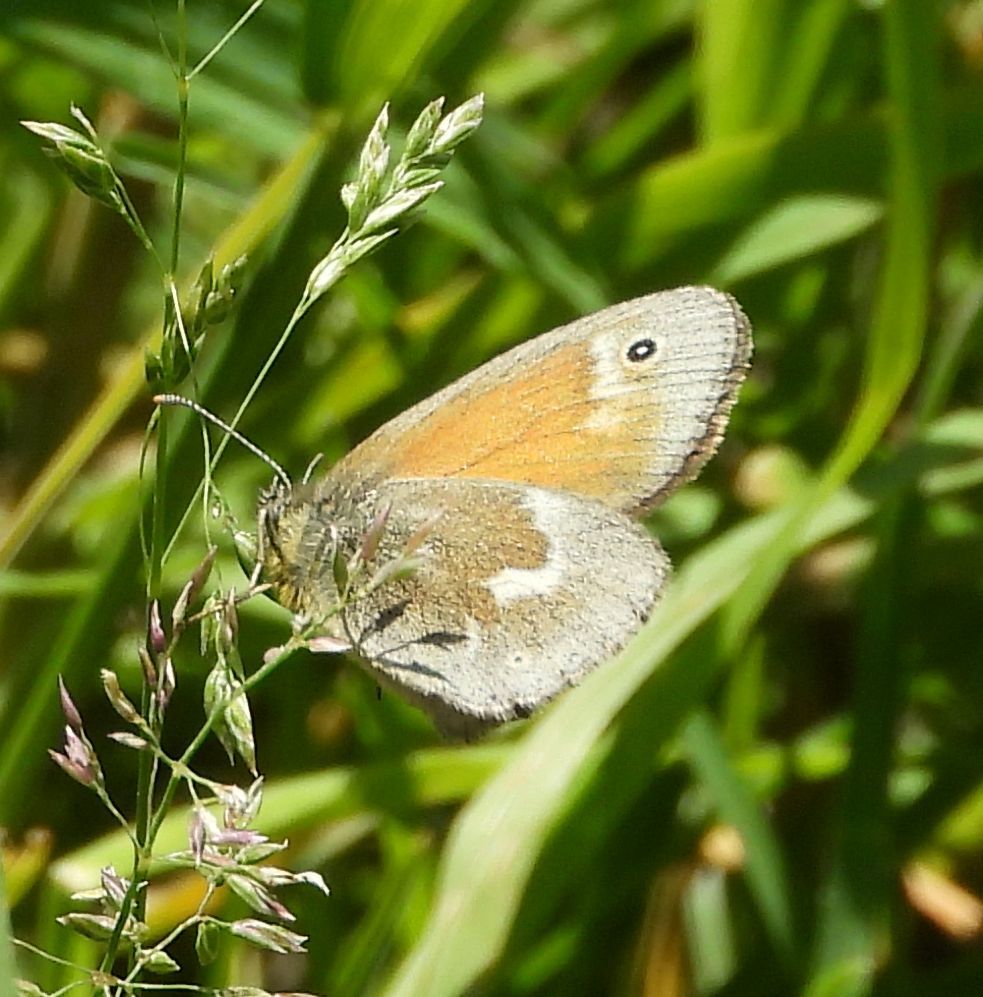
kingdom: Animalia
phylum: Arthropoda
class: Insecta
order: Lepidoptera
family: Nymphalidae
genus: Coenonympha
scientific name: Coenonympha california
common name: Common ringlet
